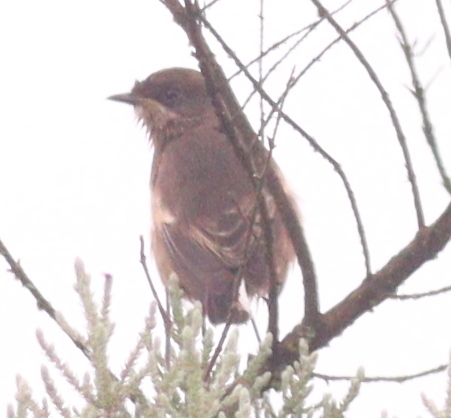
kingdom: Animalia
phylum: Chordata
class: Aves
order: Passeriformes
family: Muscicapidae
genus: Pinarochroa
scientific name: Pinarochroa sordida
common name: Moorland chat
